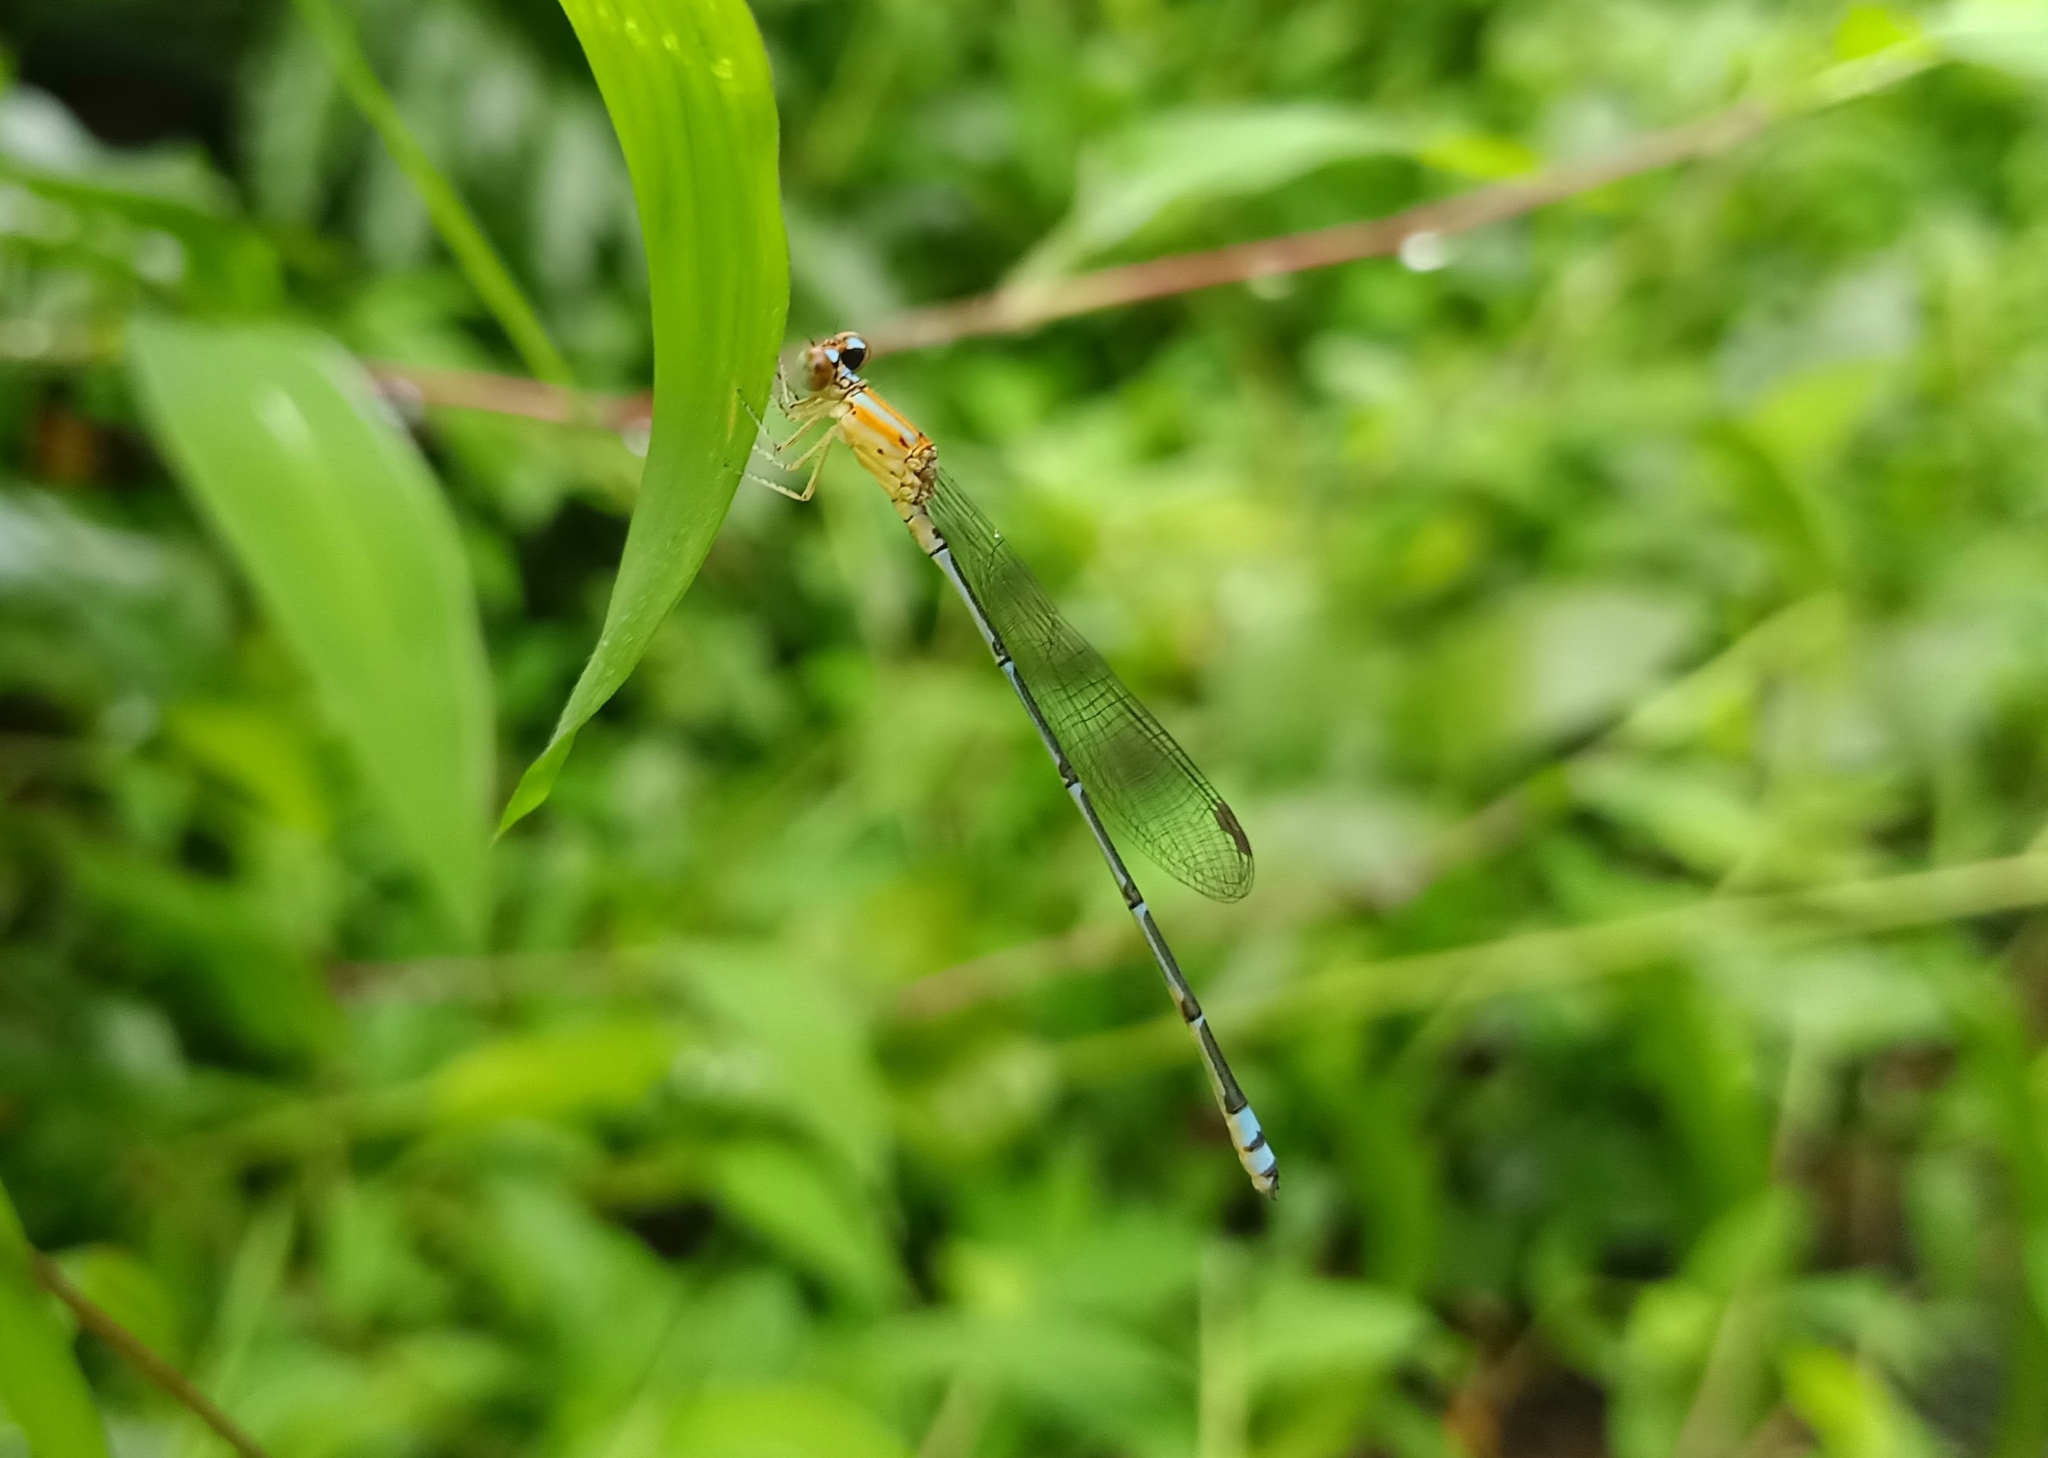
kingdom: Animalia
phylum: Arthropoda
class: Insecta
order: Odonata
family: Coenagrionidae
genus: Pseudagrion
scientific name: Pseudagrion microcephalum
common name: Blue riverdamsel
